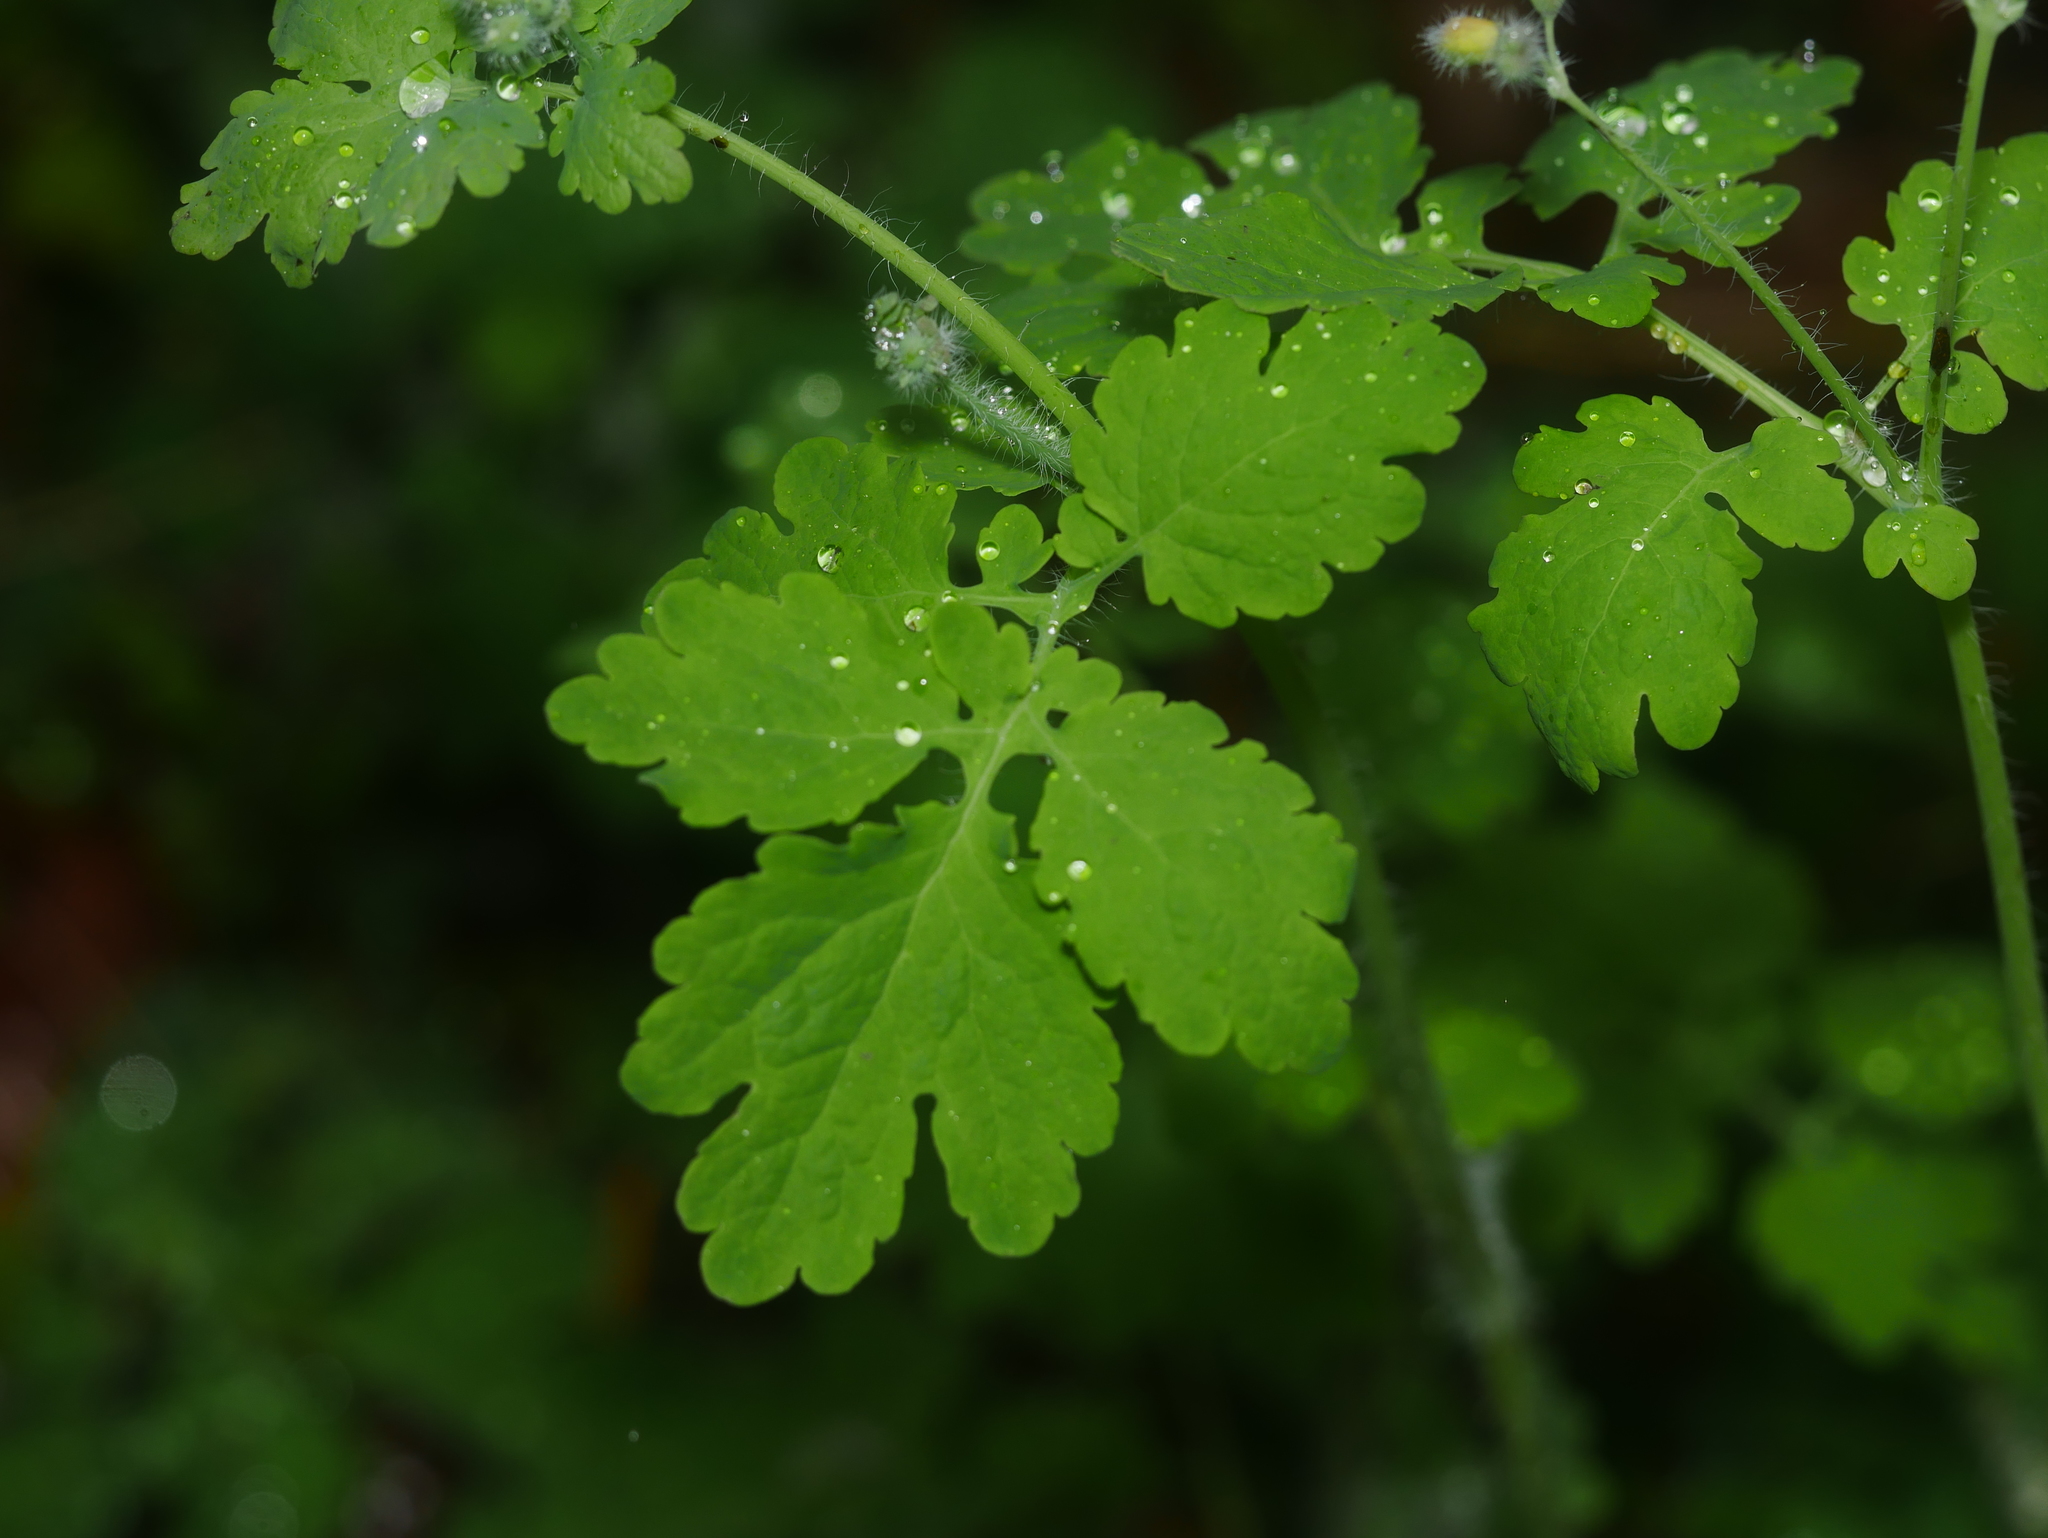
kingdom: Plantae
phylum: Tracheophyta
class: Magnoliopsida
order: Ranunculales
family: Papaveraceae
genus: Chelidonium
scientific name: Chelidonium majus
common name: Greater celandine
